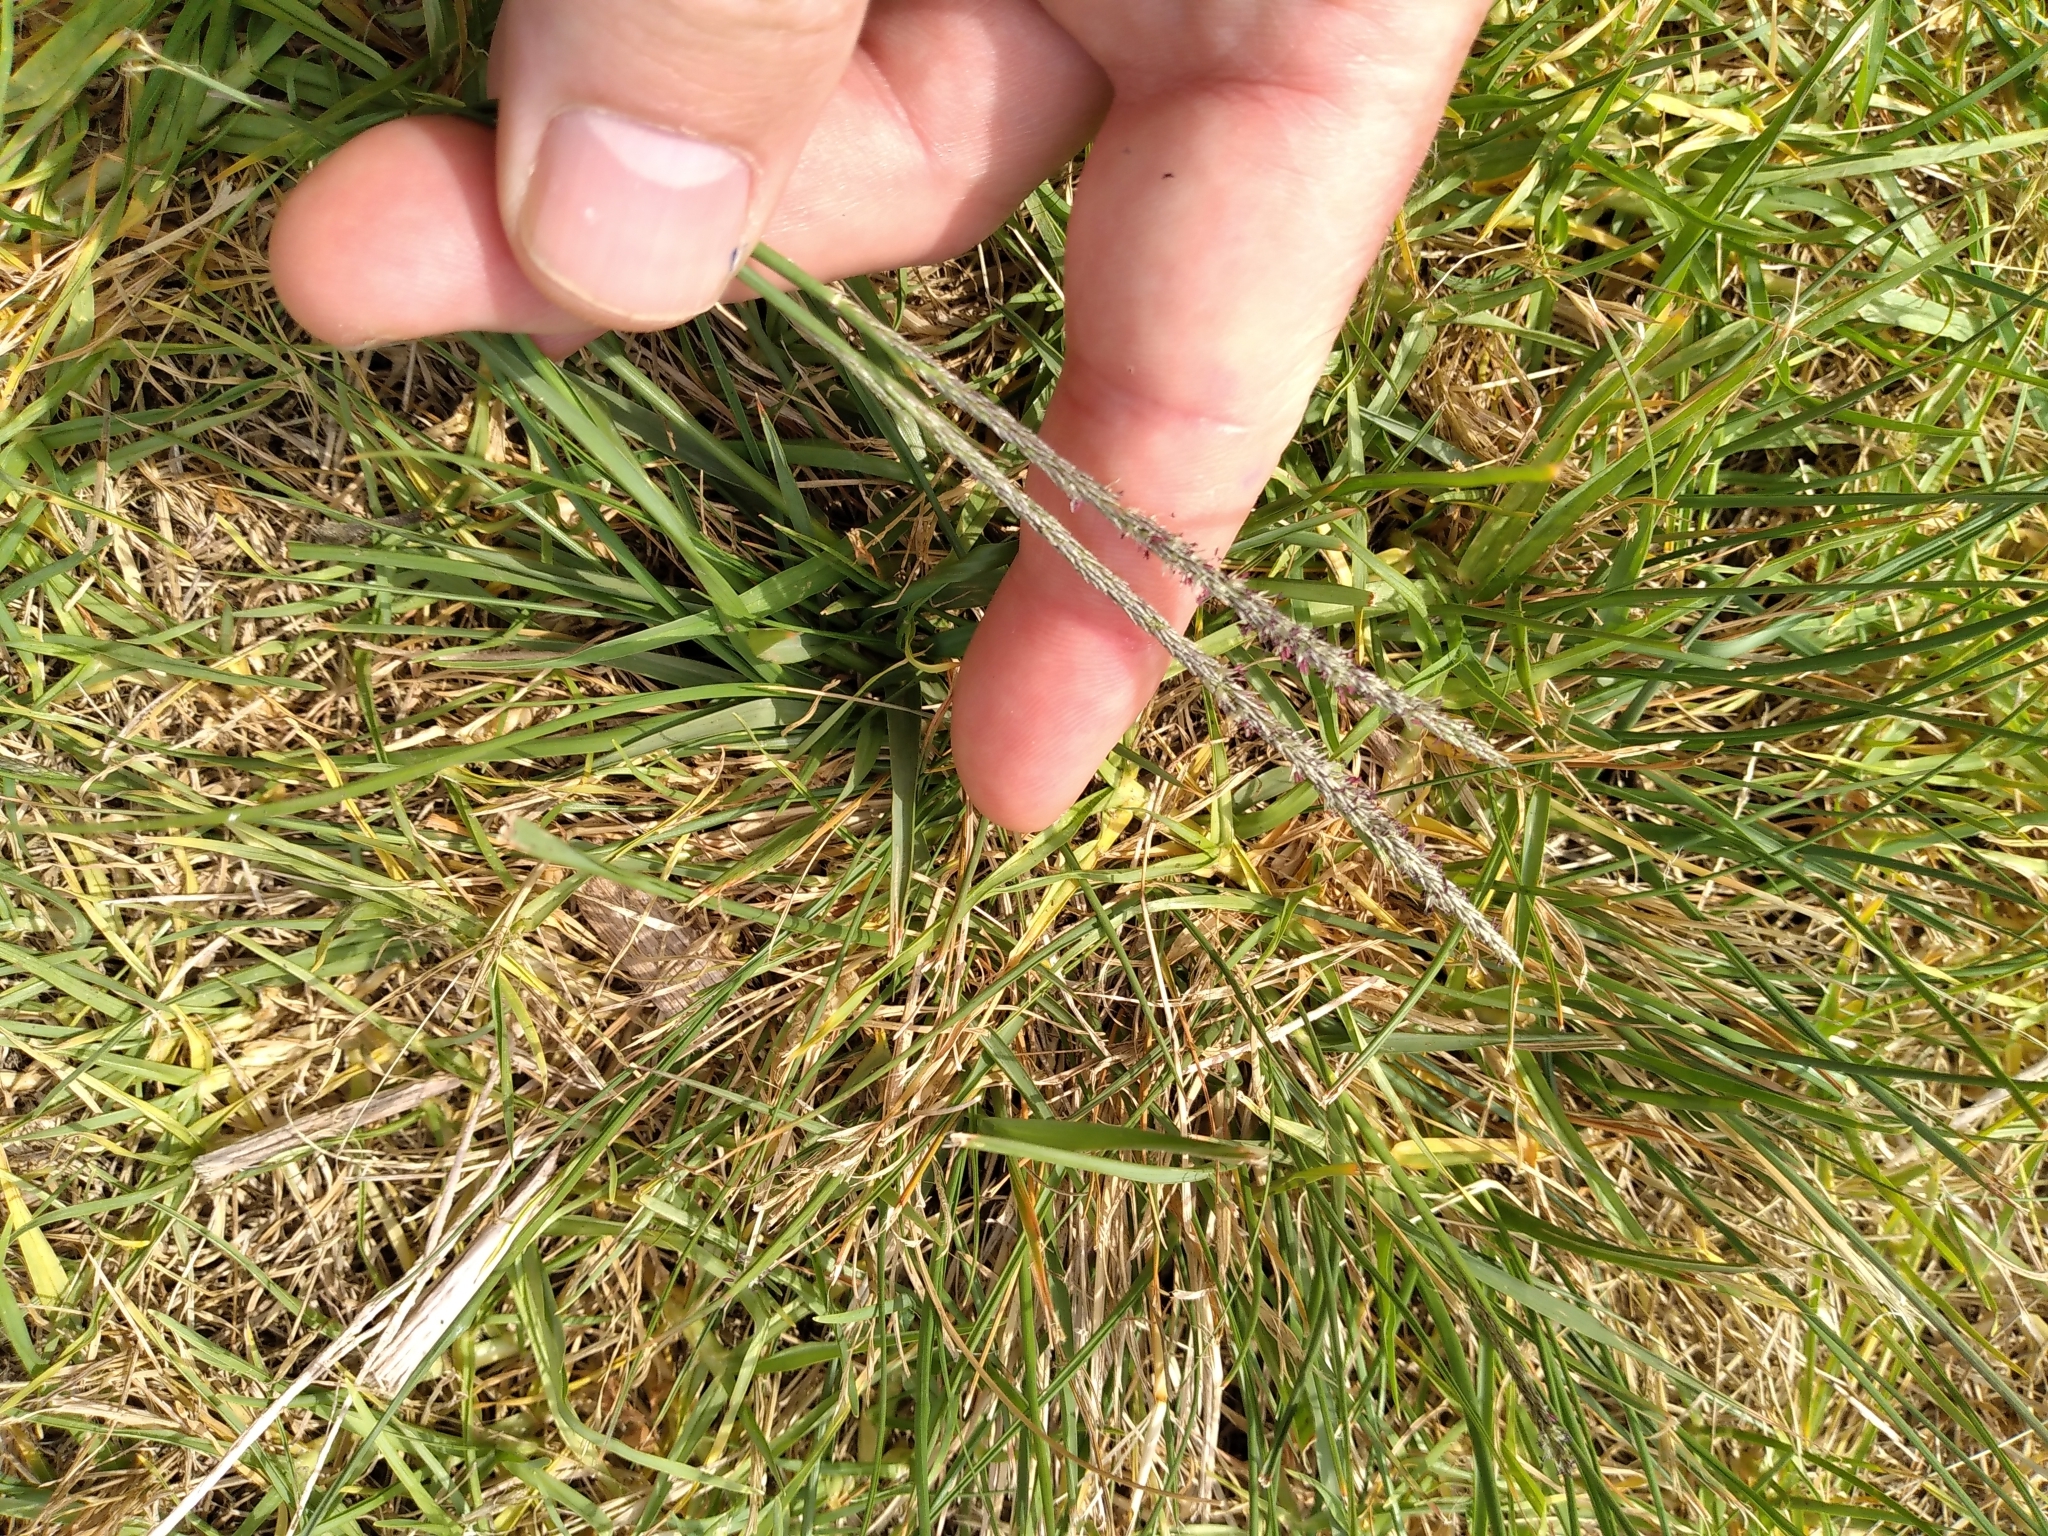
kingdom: Plantae
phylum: Tracheophyta
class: Liliopsida
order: Poales
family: Poaceae
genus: Sporobolus
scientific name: Sporobolus africanus
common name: African dropseed
